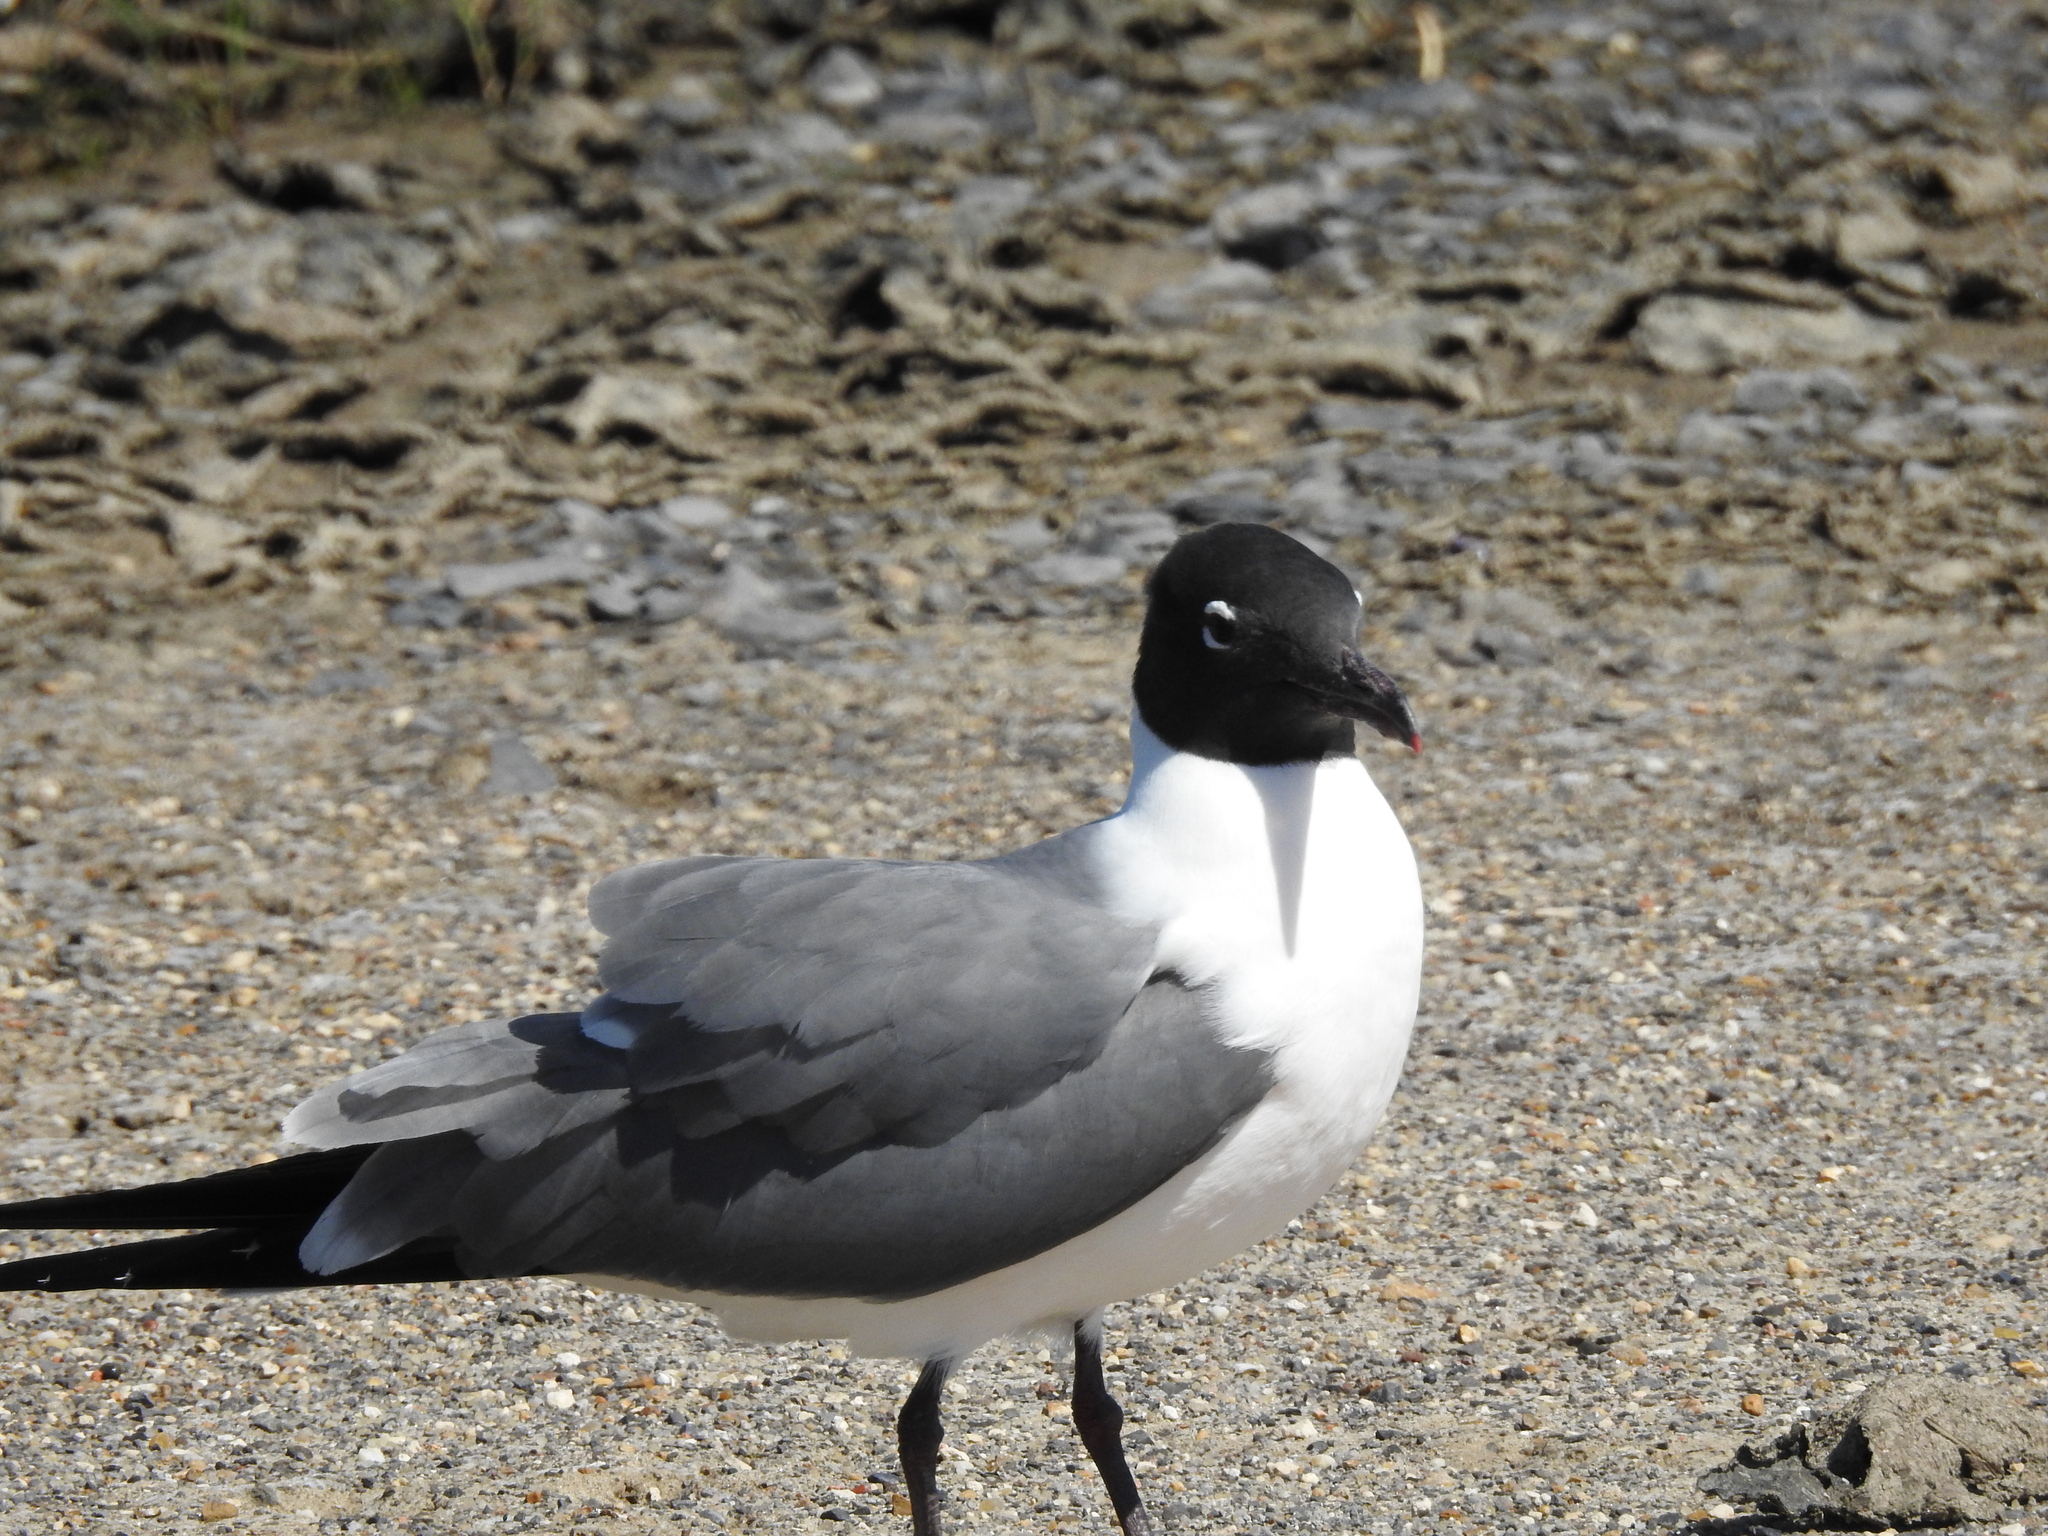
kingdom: Animalia
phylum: Chordata
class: Aves
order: Charadriiformes
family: Laridae
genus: Leucophaeus
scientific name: Leucophaeus atricilla
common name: Laughing gull
